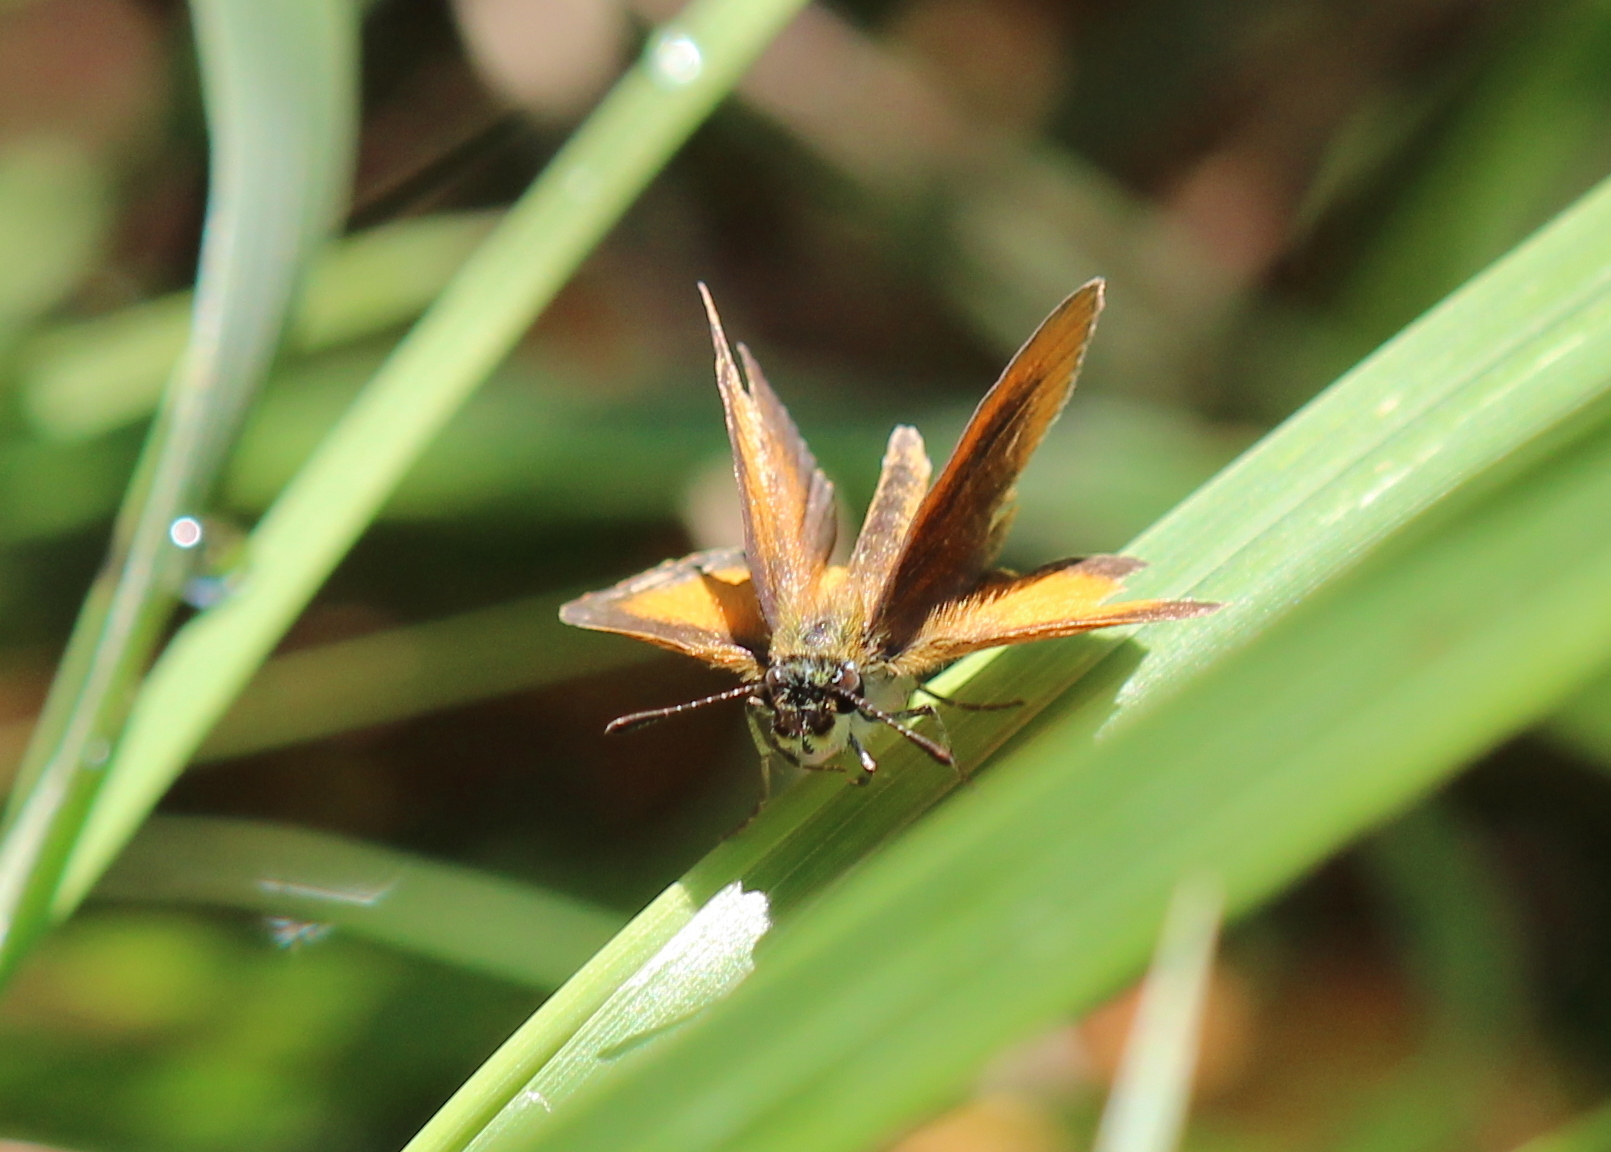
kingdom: Animalia
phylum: Arthropoda
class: Insecta
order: Lepidoptera
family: Hesperiidae
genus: Ancyloxypha
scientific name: Ancyloxypha numitor
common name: Least skipper
